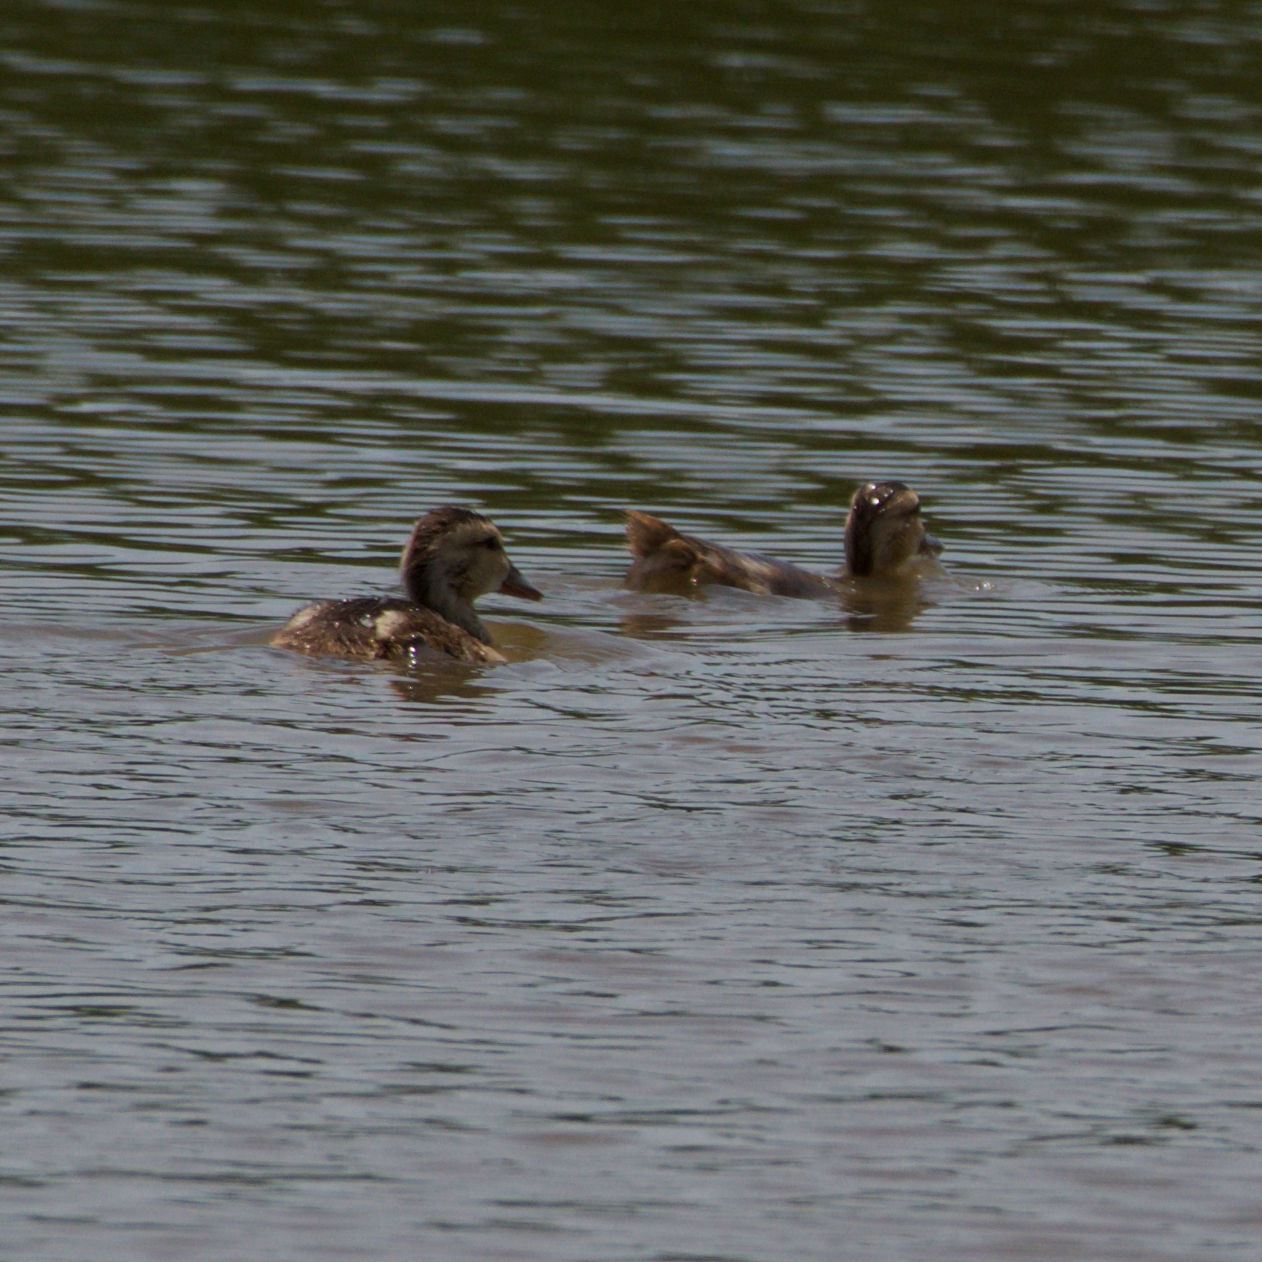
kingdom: Animalia
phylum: Chordata
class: Aves
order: Anseriformes
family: Anatidae
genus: Mareca
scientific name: Mareca strepera
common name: Gadwall
